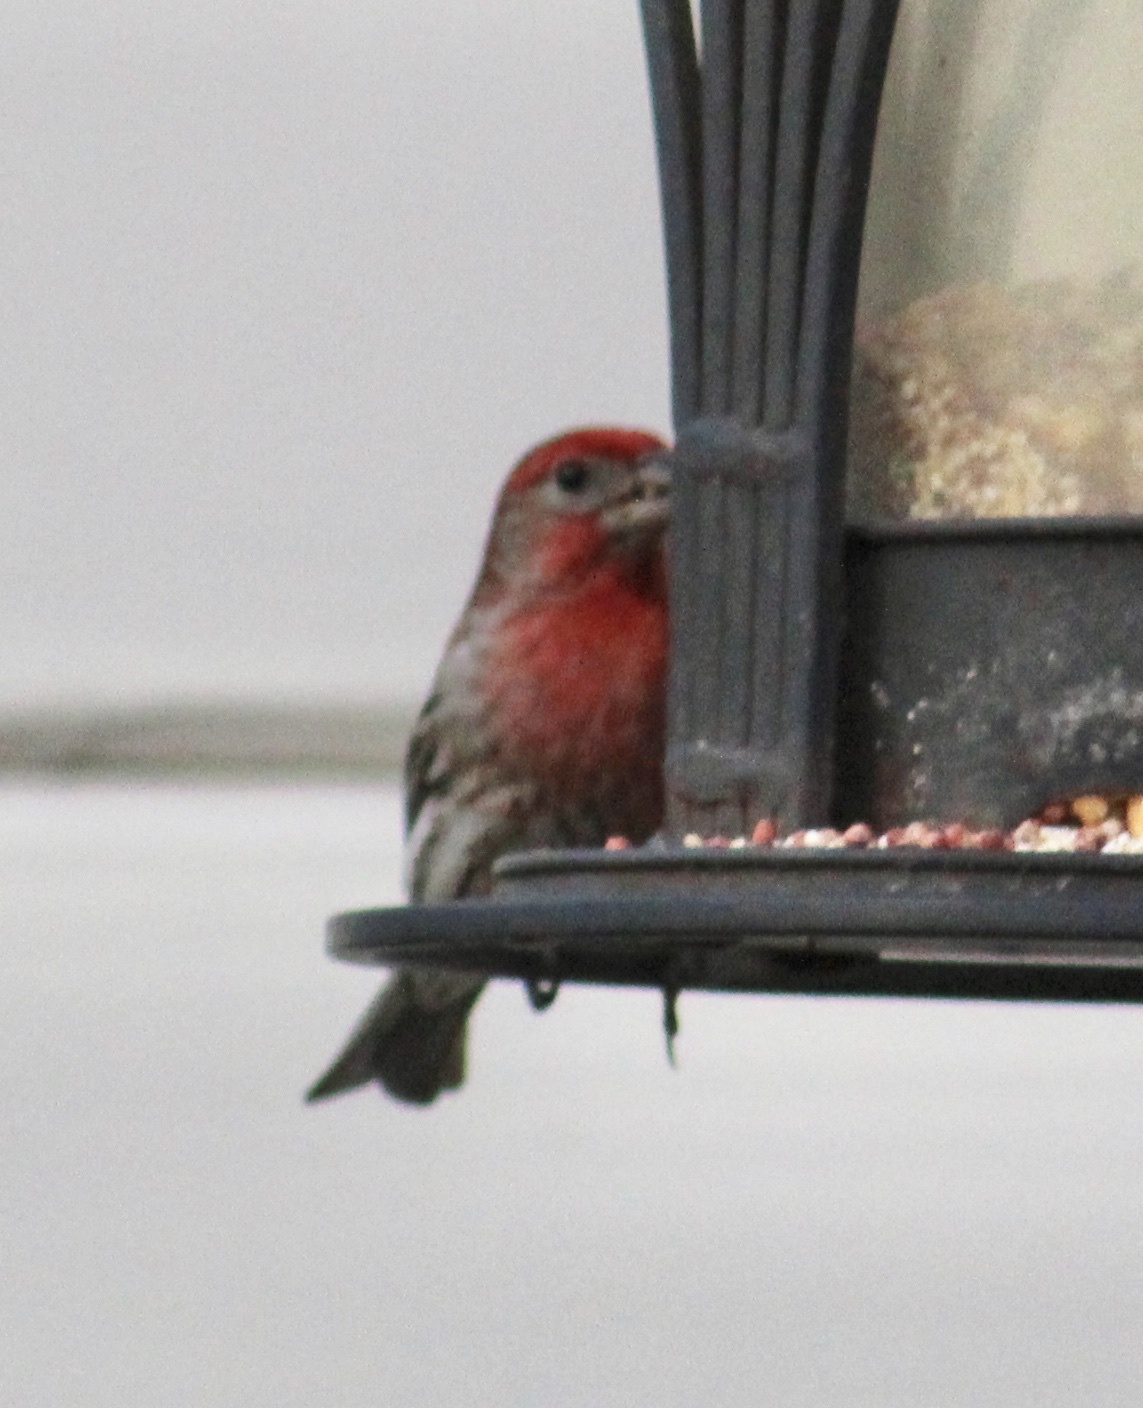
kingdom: Animalia
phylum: Chordata
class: Aves
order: Passeriformes
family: Fringillidae
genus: Haemorhous
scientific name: Haemorhous mexicanus
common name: House finch
